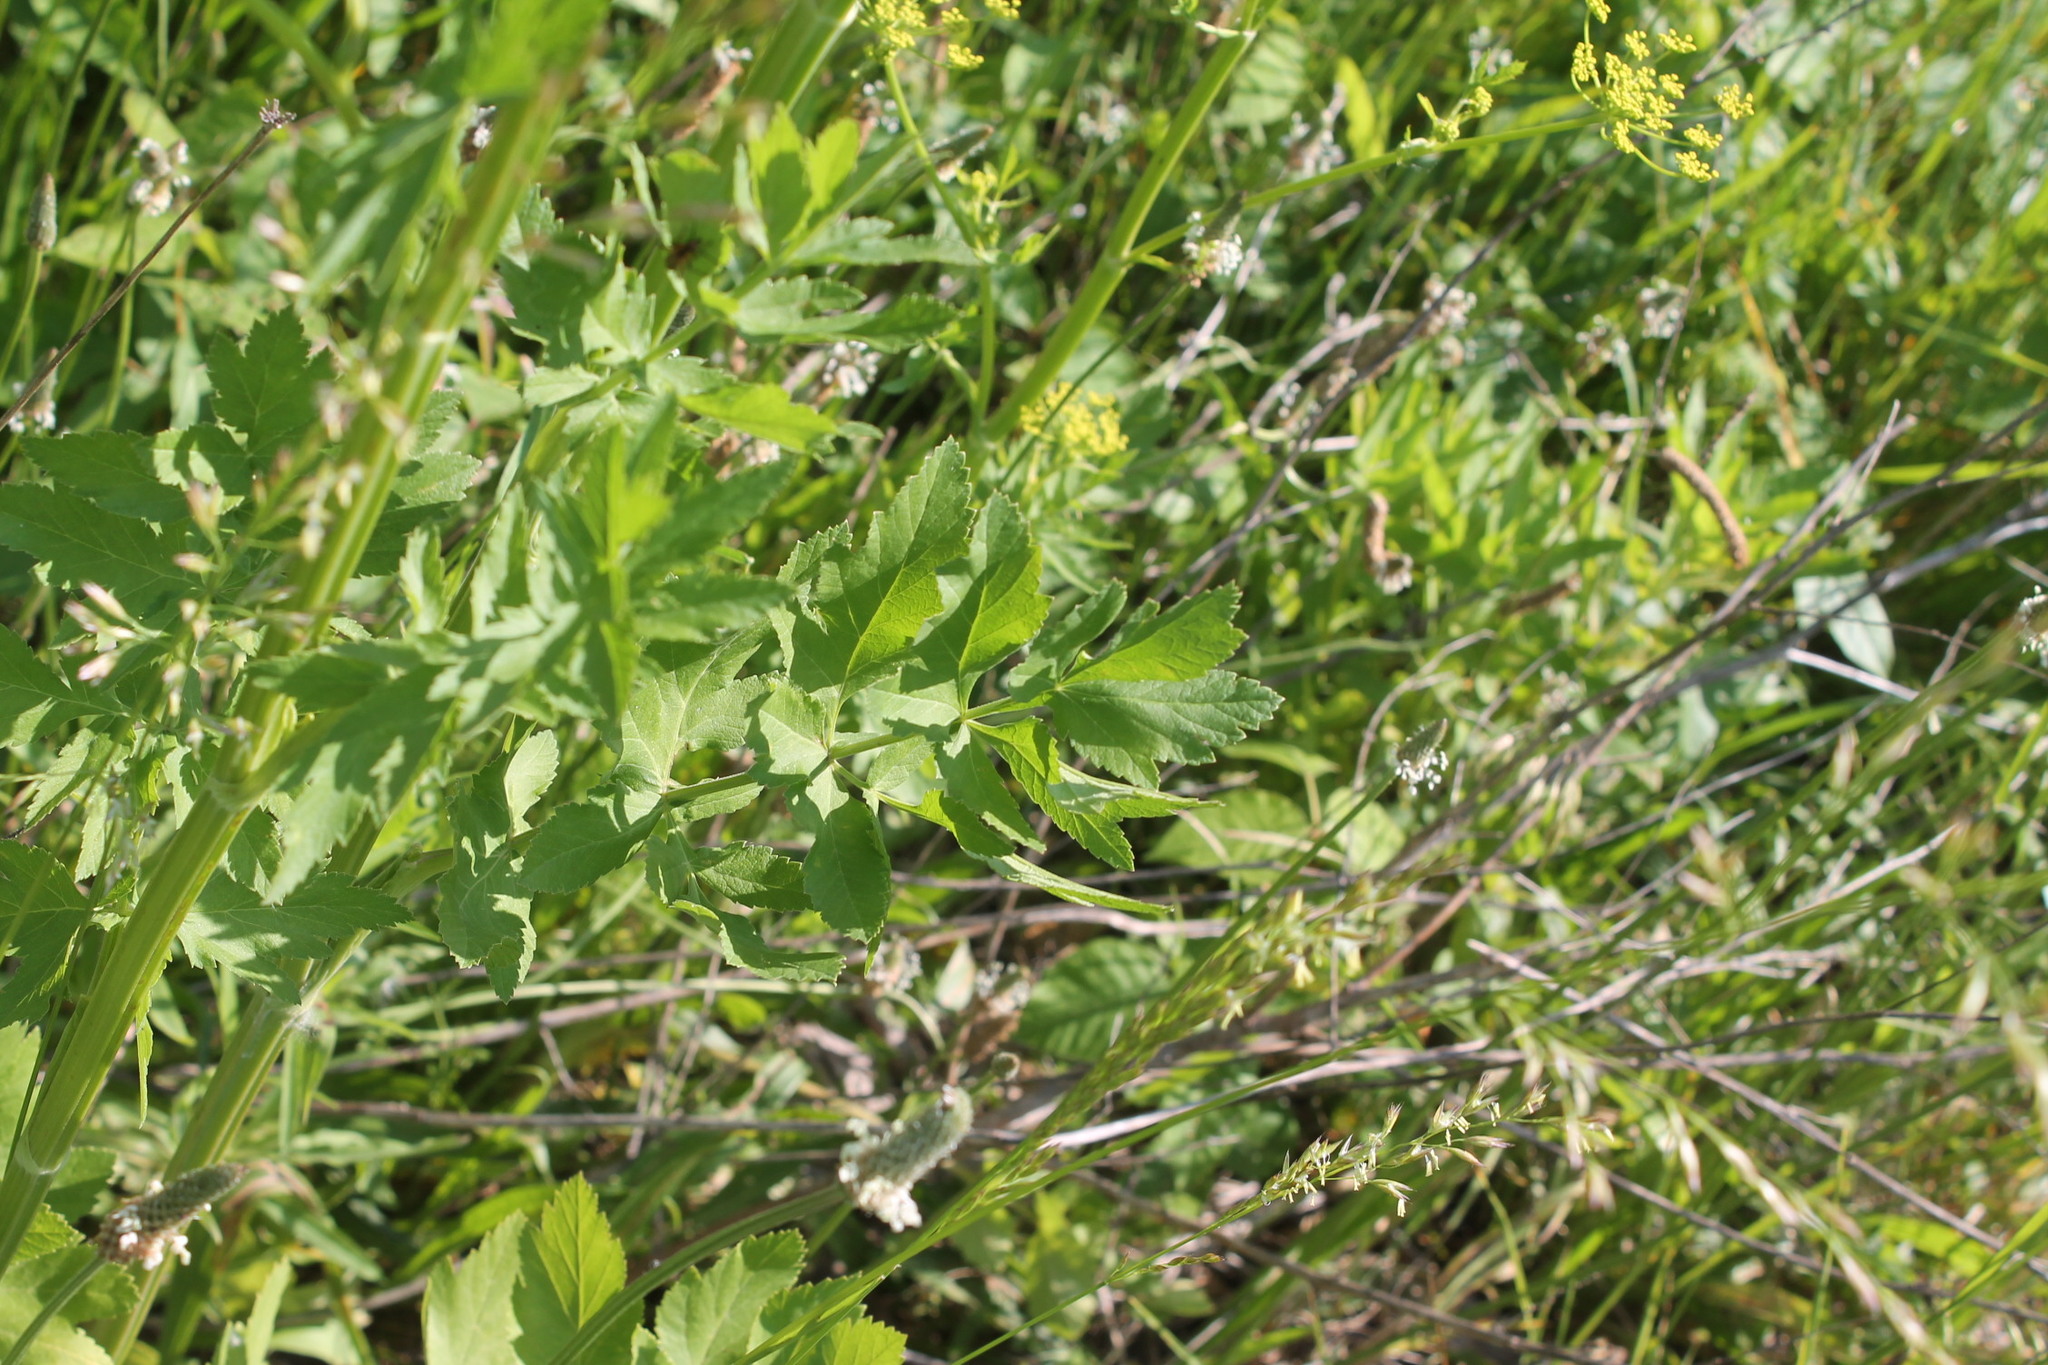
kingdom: Plantae
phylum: Tracheophyta
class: Magnoliopsida
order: Apiales
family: Apiaceae
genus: Pastinaca
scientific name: Pastinaca sativa
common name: Wild parsnip
